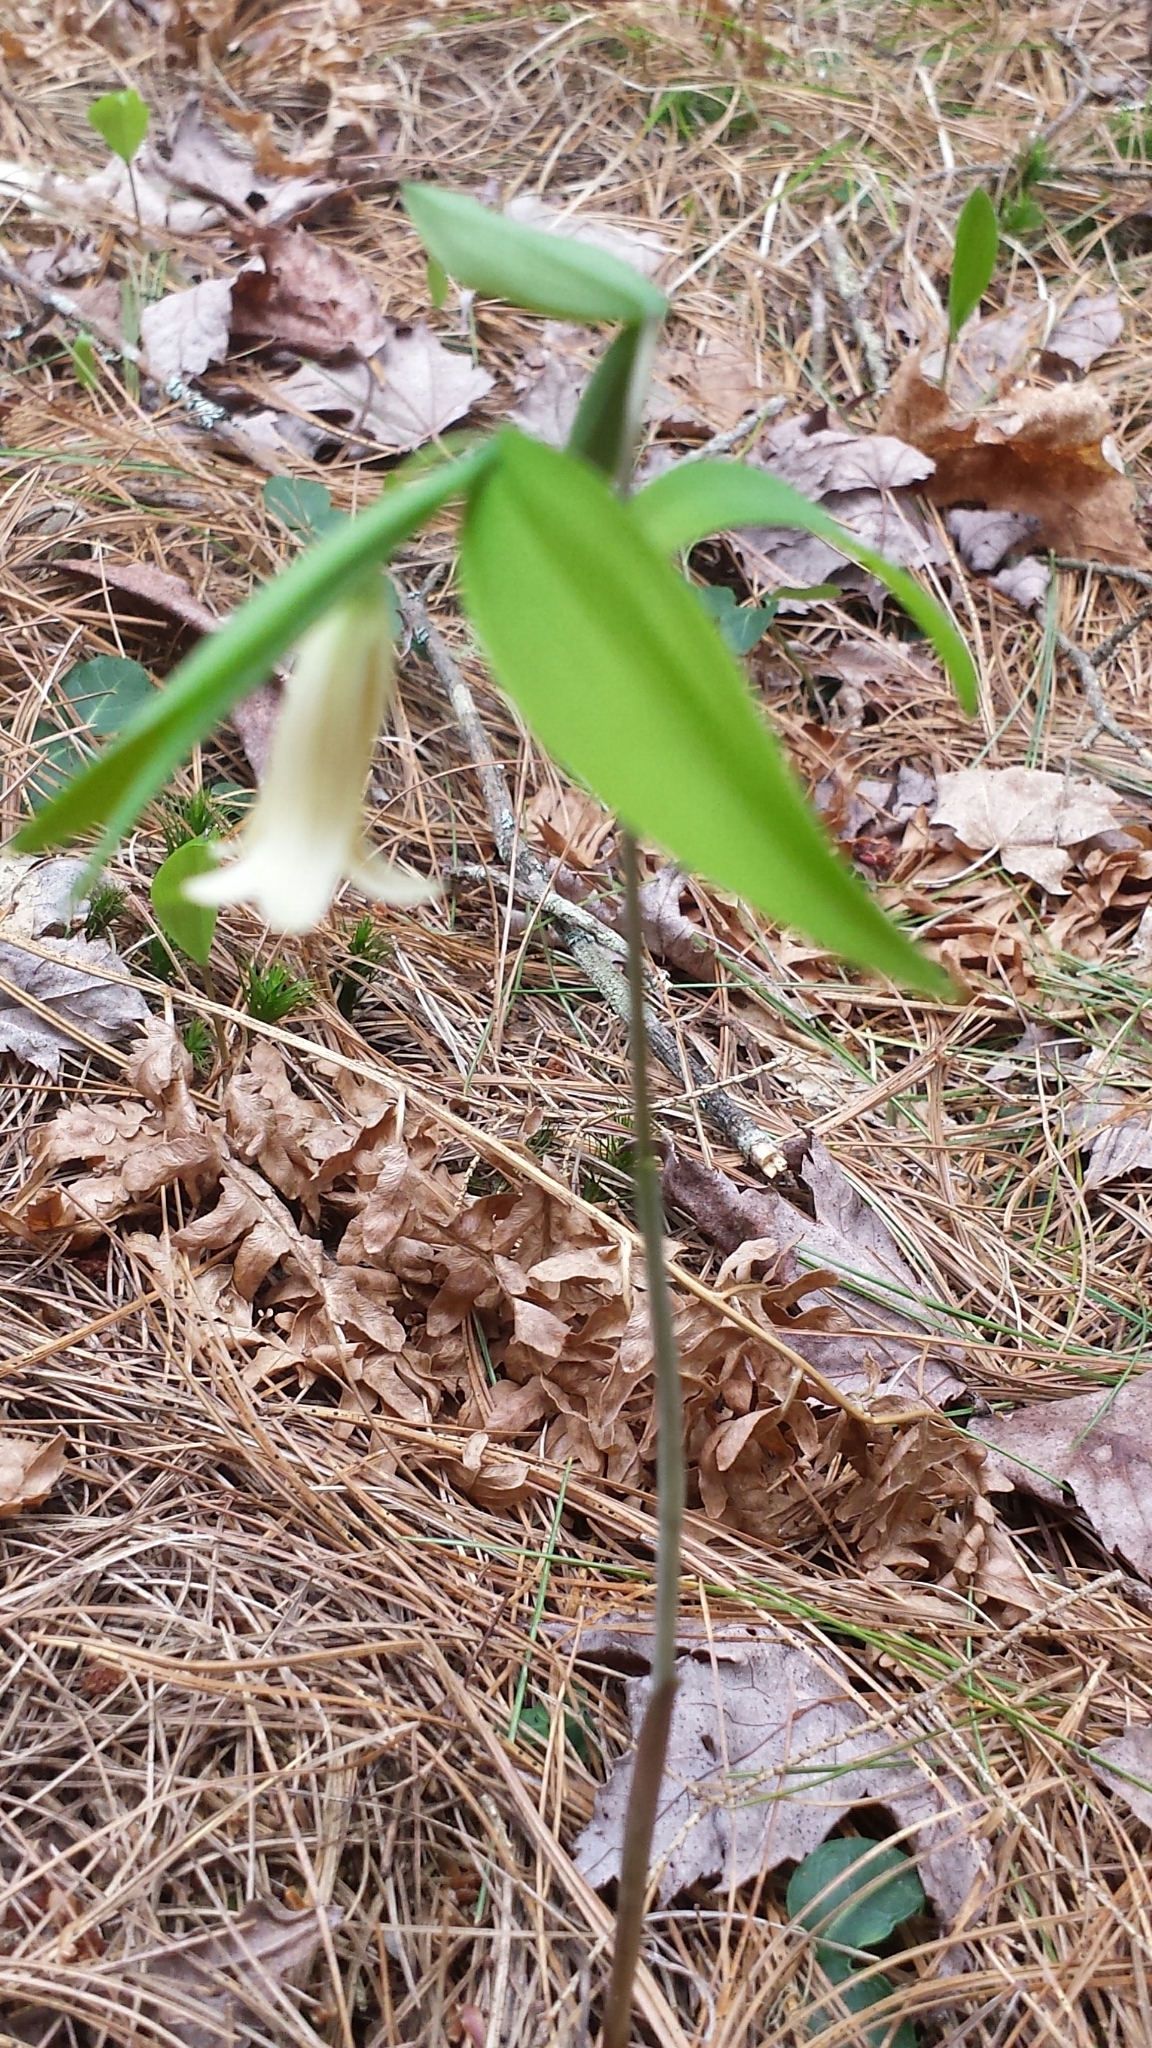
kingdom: Plantae
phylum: Tracheophyta
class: Liliopsida
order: Liliales
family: Colchicaceae
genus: Uvularia
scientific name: Uvularia sessilifolia
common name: Straw-lily
